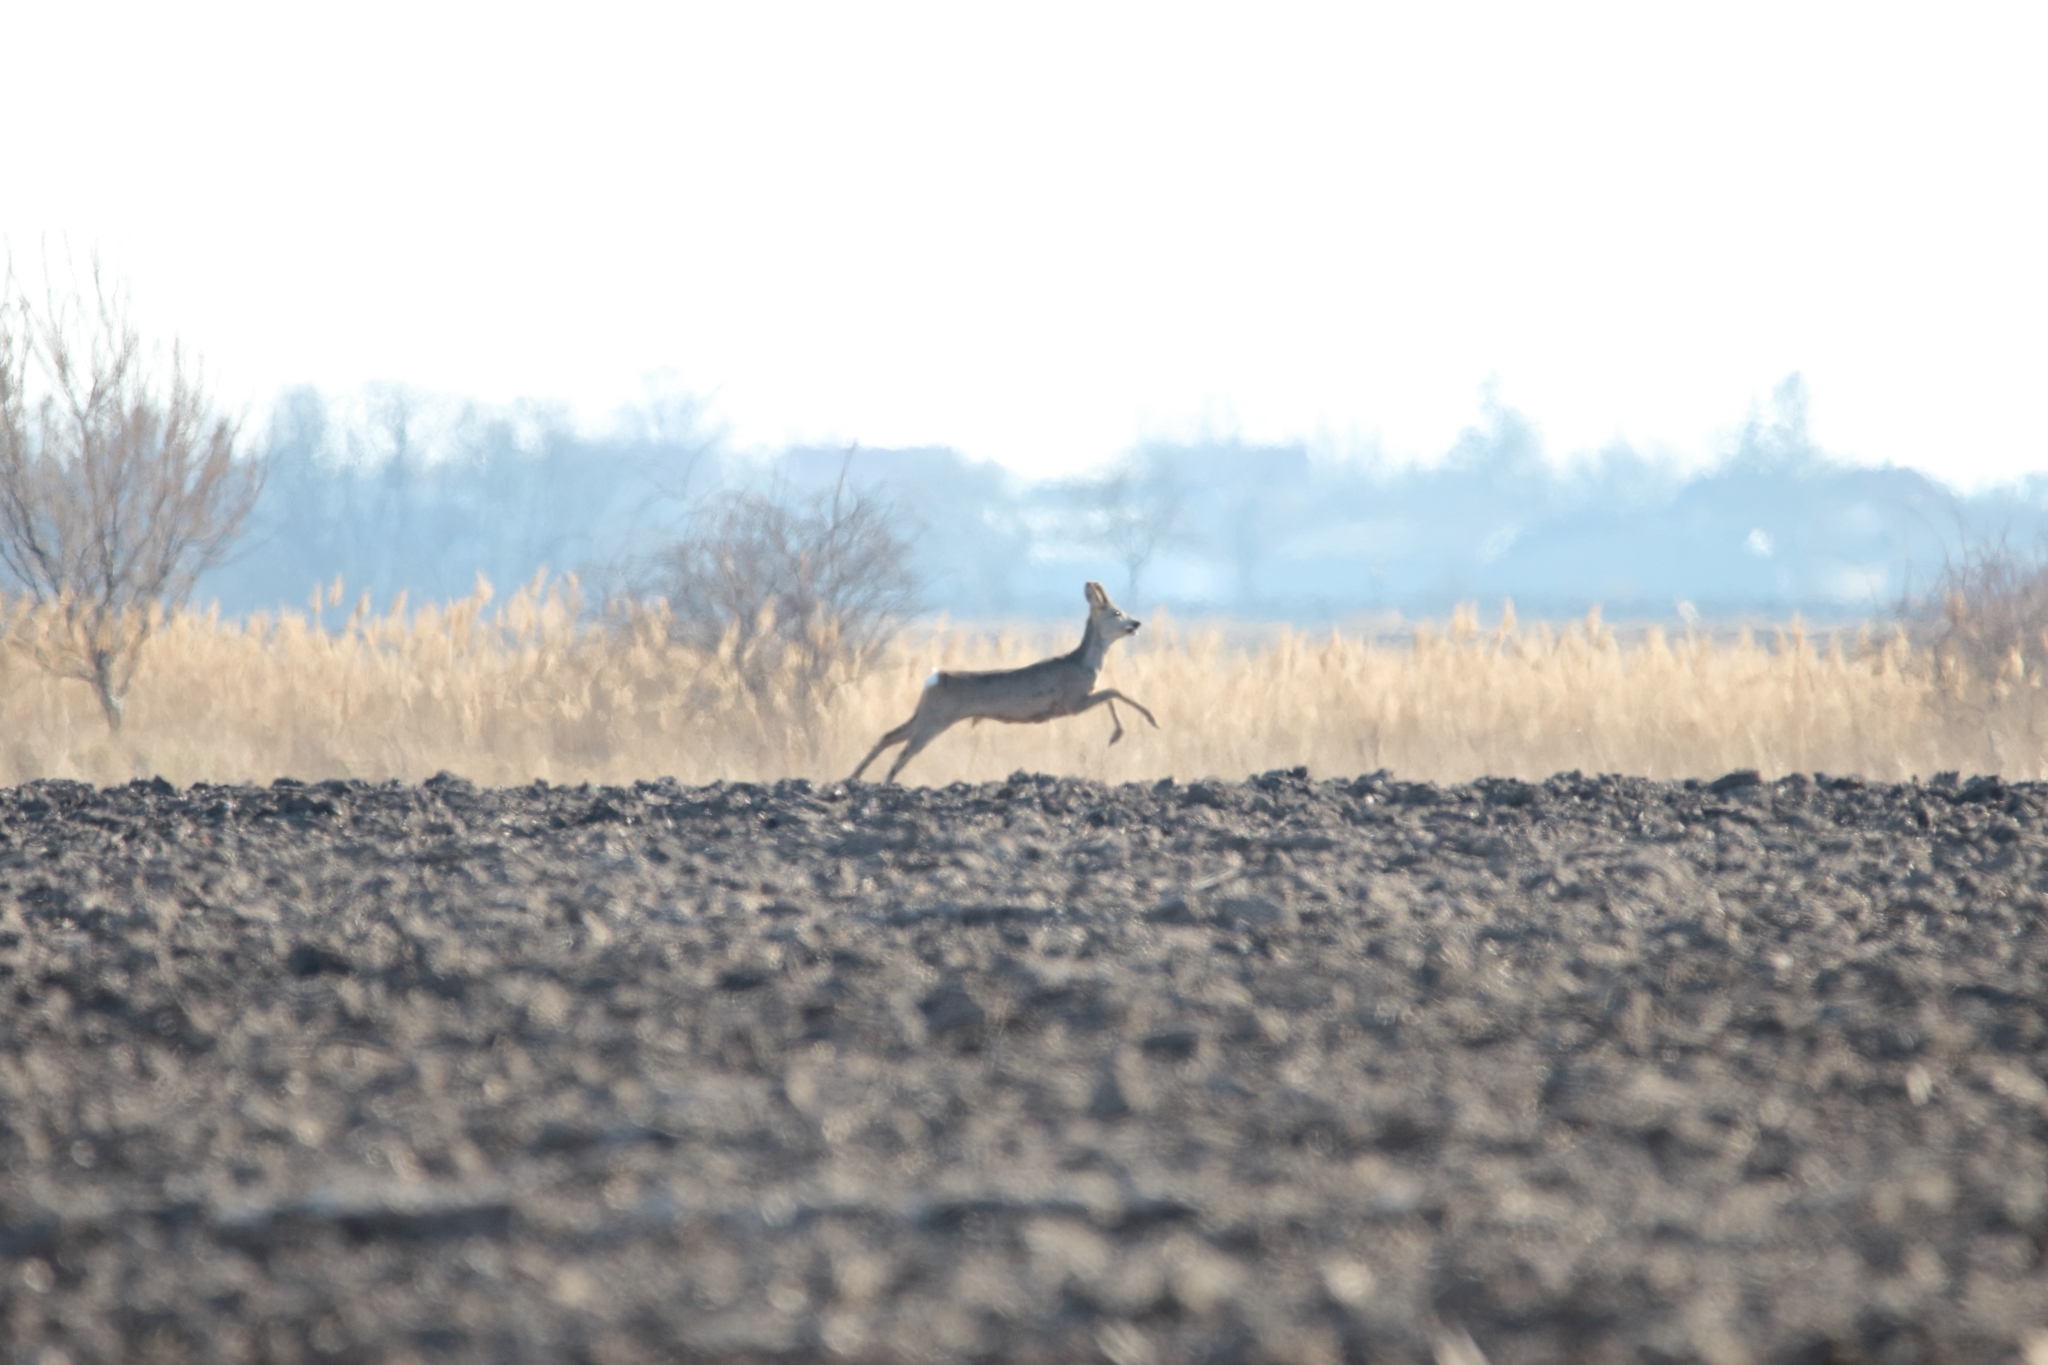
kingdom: Animalia
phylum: Chordata
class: Mammalia
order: Artiodactyla
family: Cervidae
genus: Capreolus
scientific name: Capreolus capreolus
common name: Western roe deer
